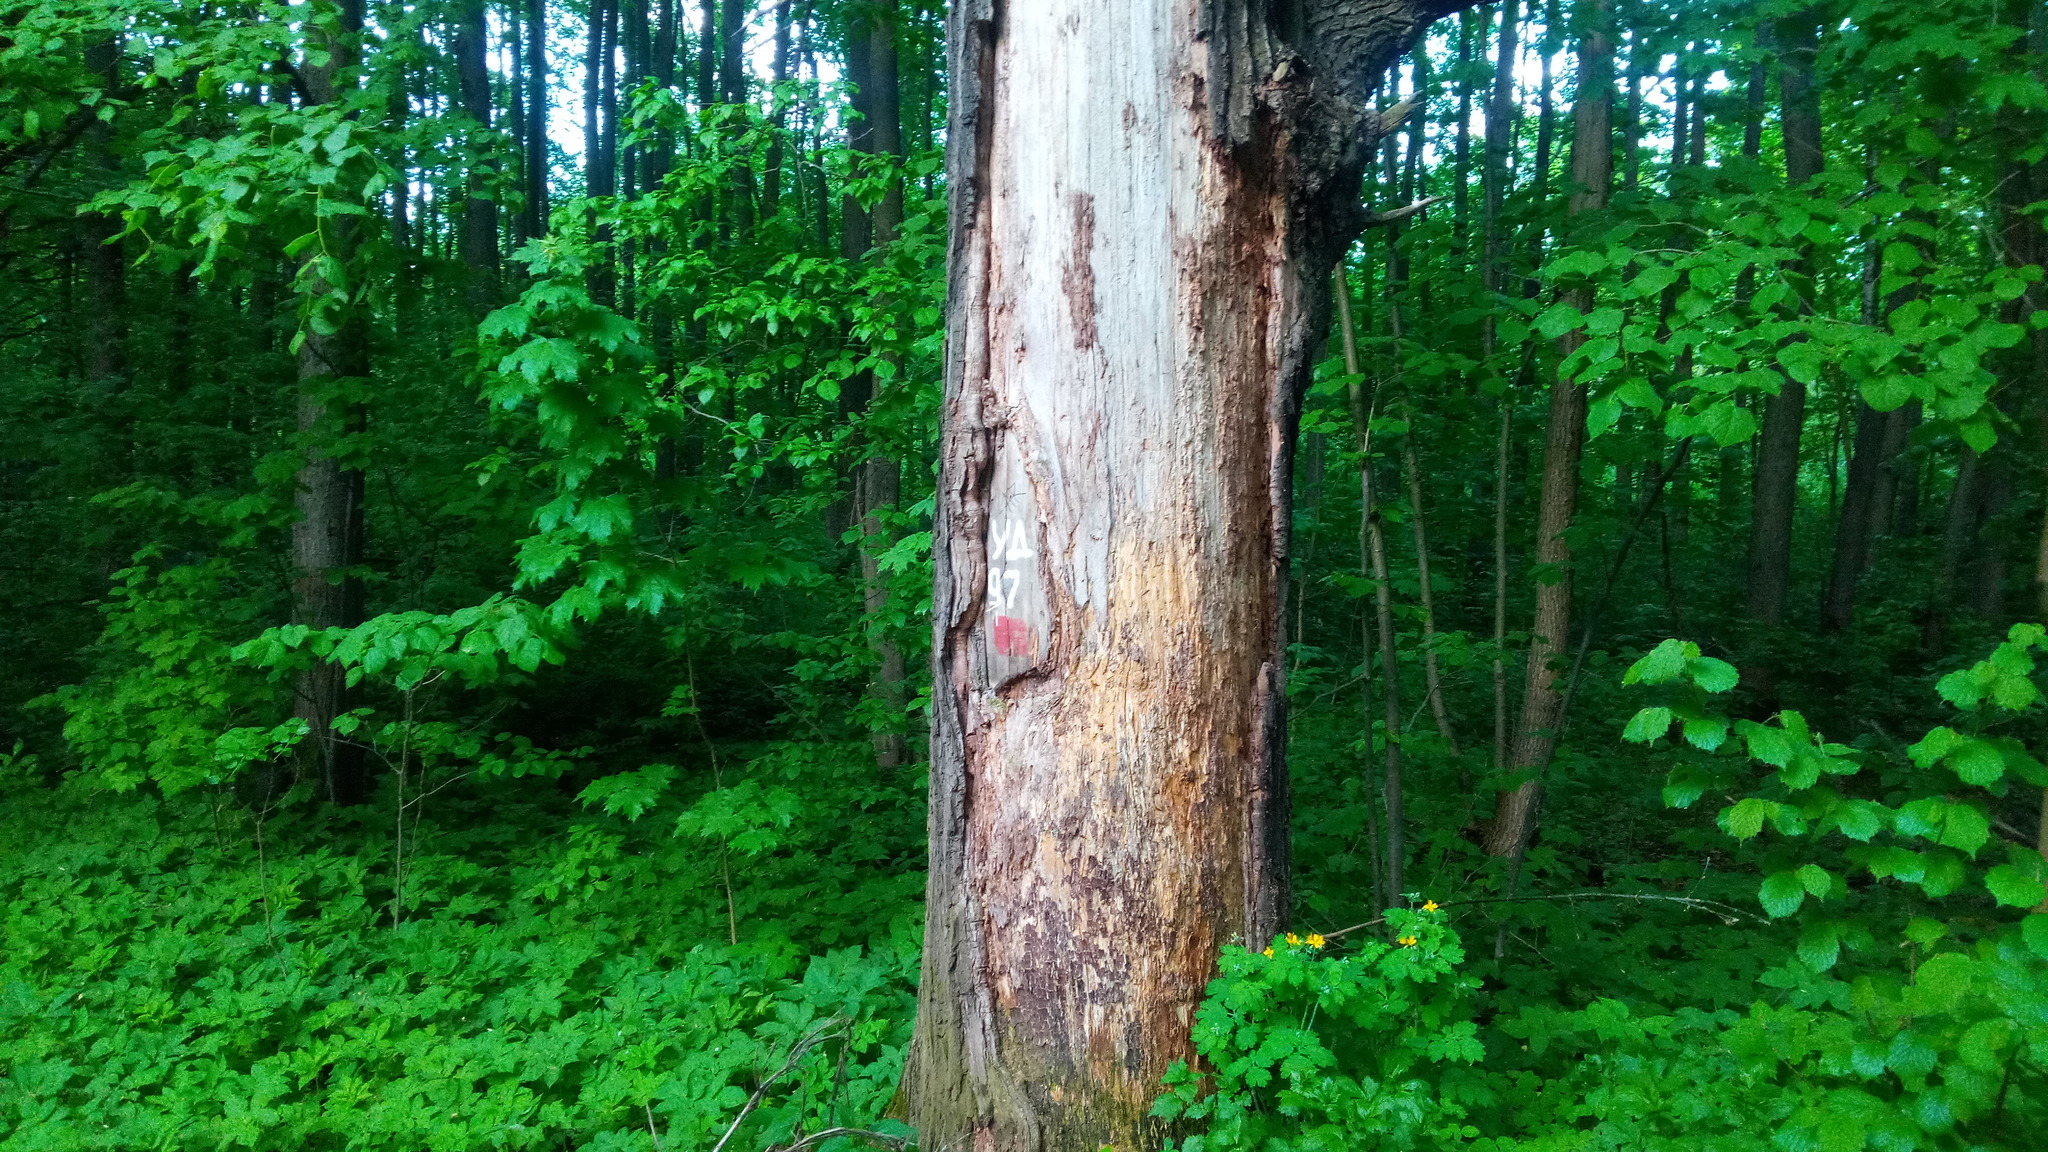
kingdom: Plantae
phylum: Tracheophyta
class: Magnoliopsida
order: Fagales
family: Fagaceae
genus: Quercus
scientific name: Quercus robur
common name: Pedunculate oak
